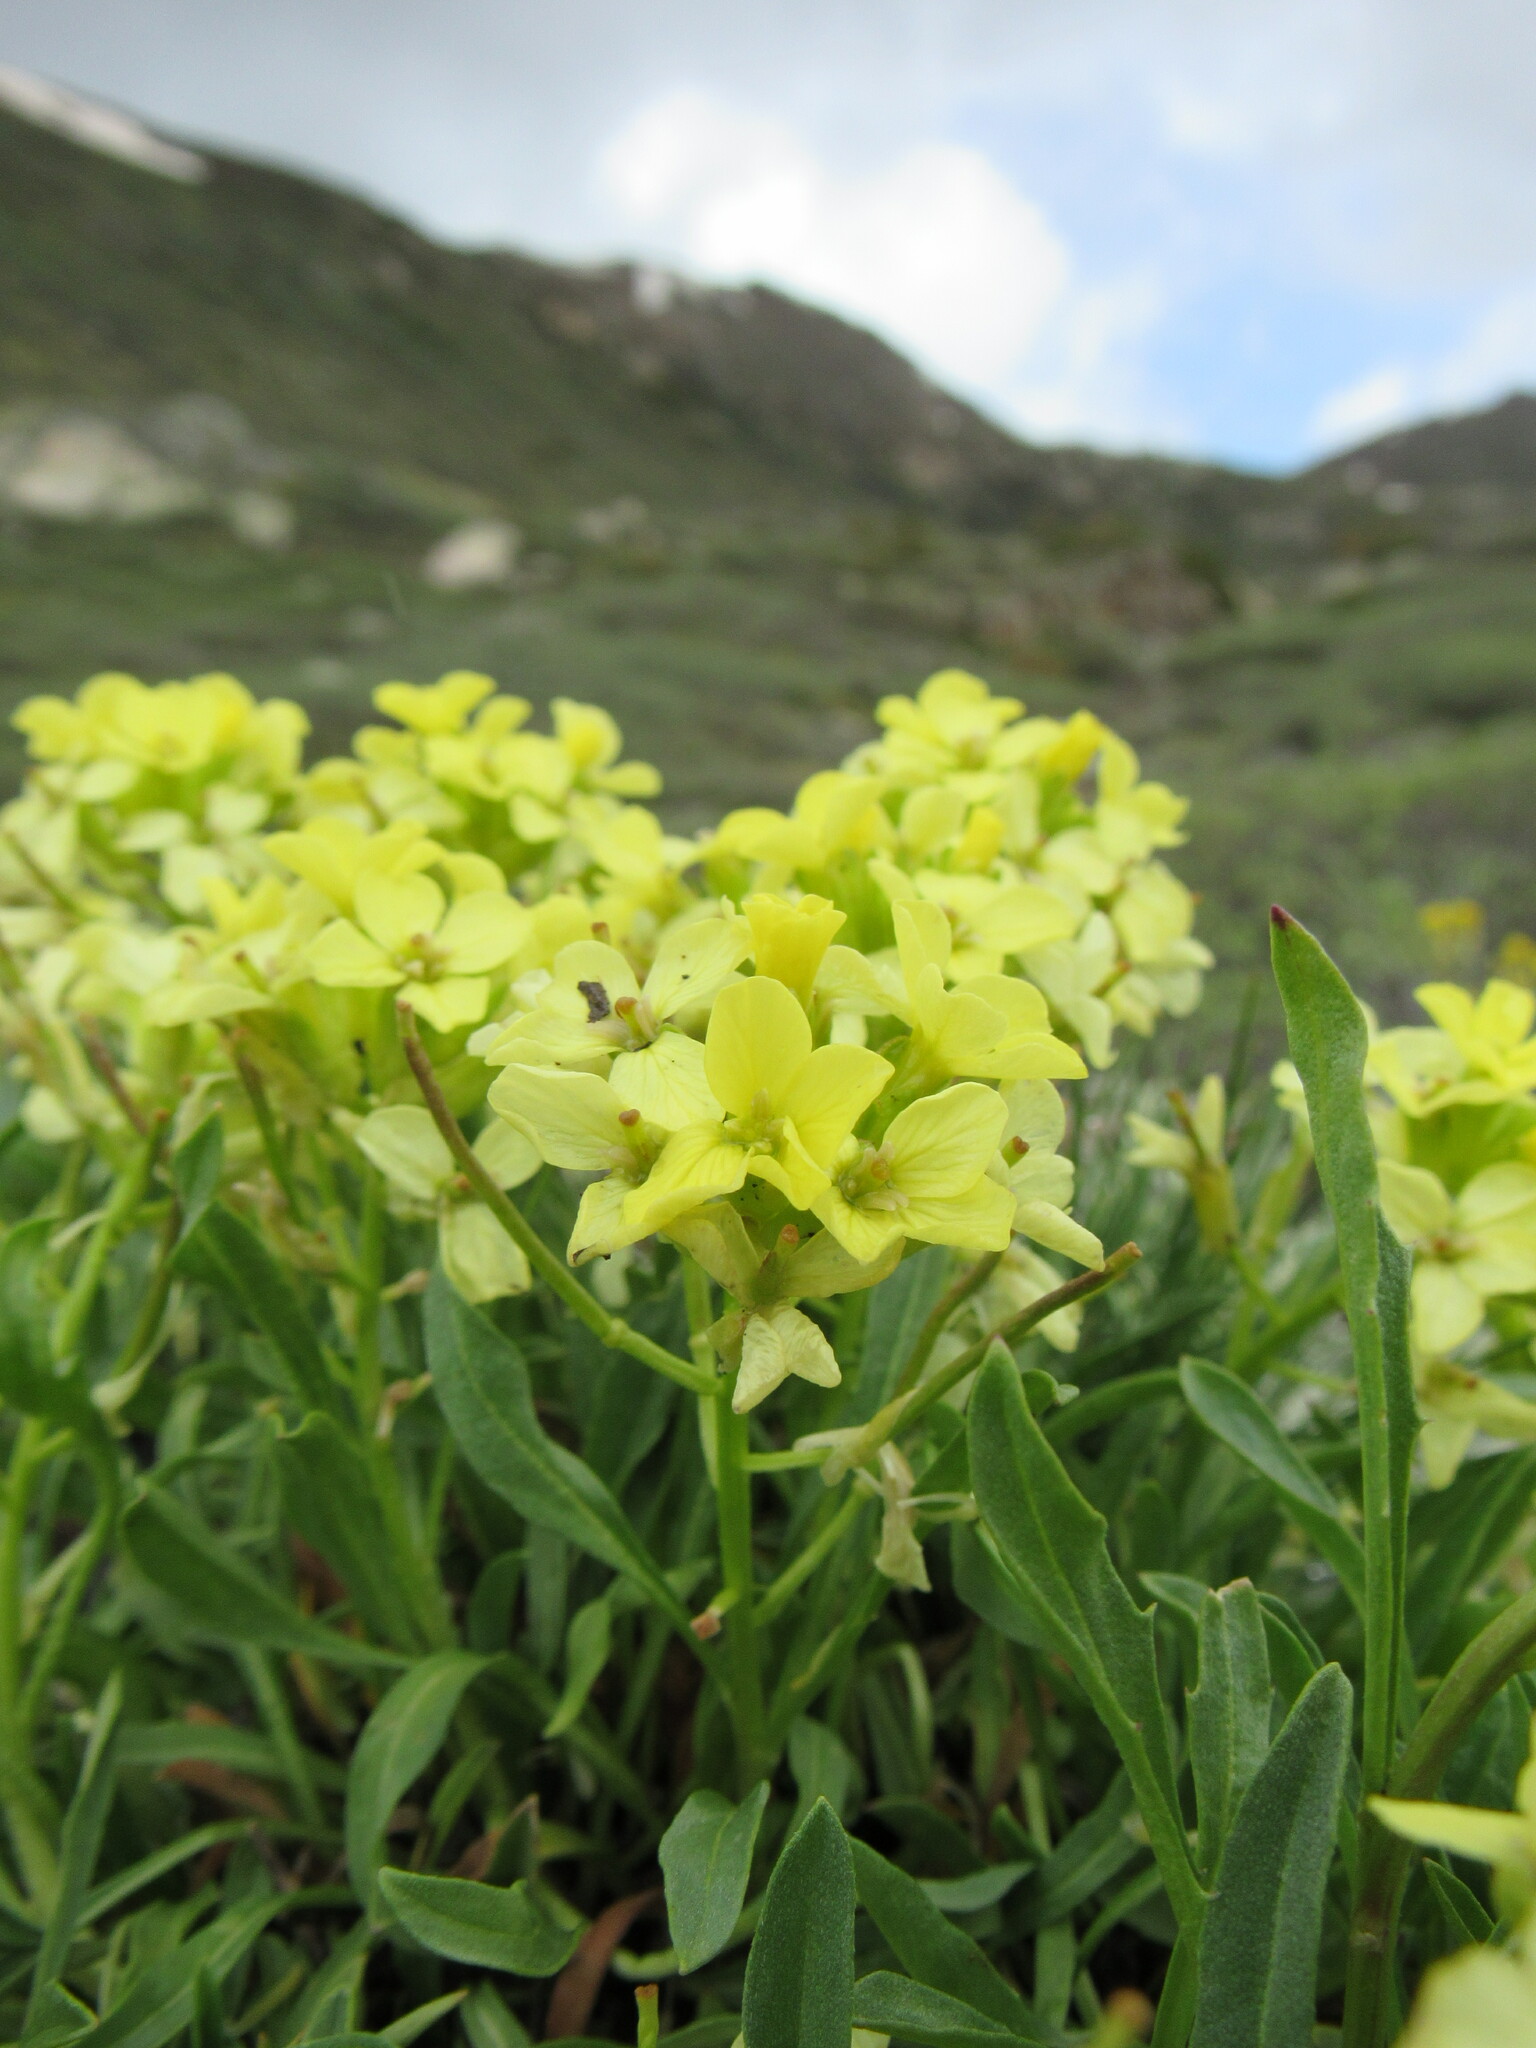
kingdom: Plantae
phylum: Tracheophyta
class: Magnoliopsida
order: Brassicales
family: Brassicaceae
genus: Erysimum
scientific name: Erysimum capitatum
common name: Western wallflower
